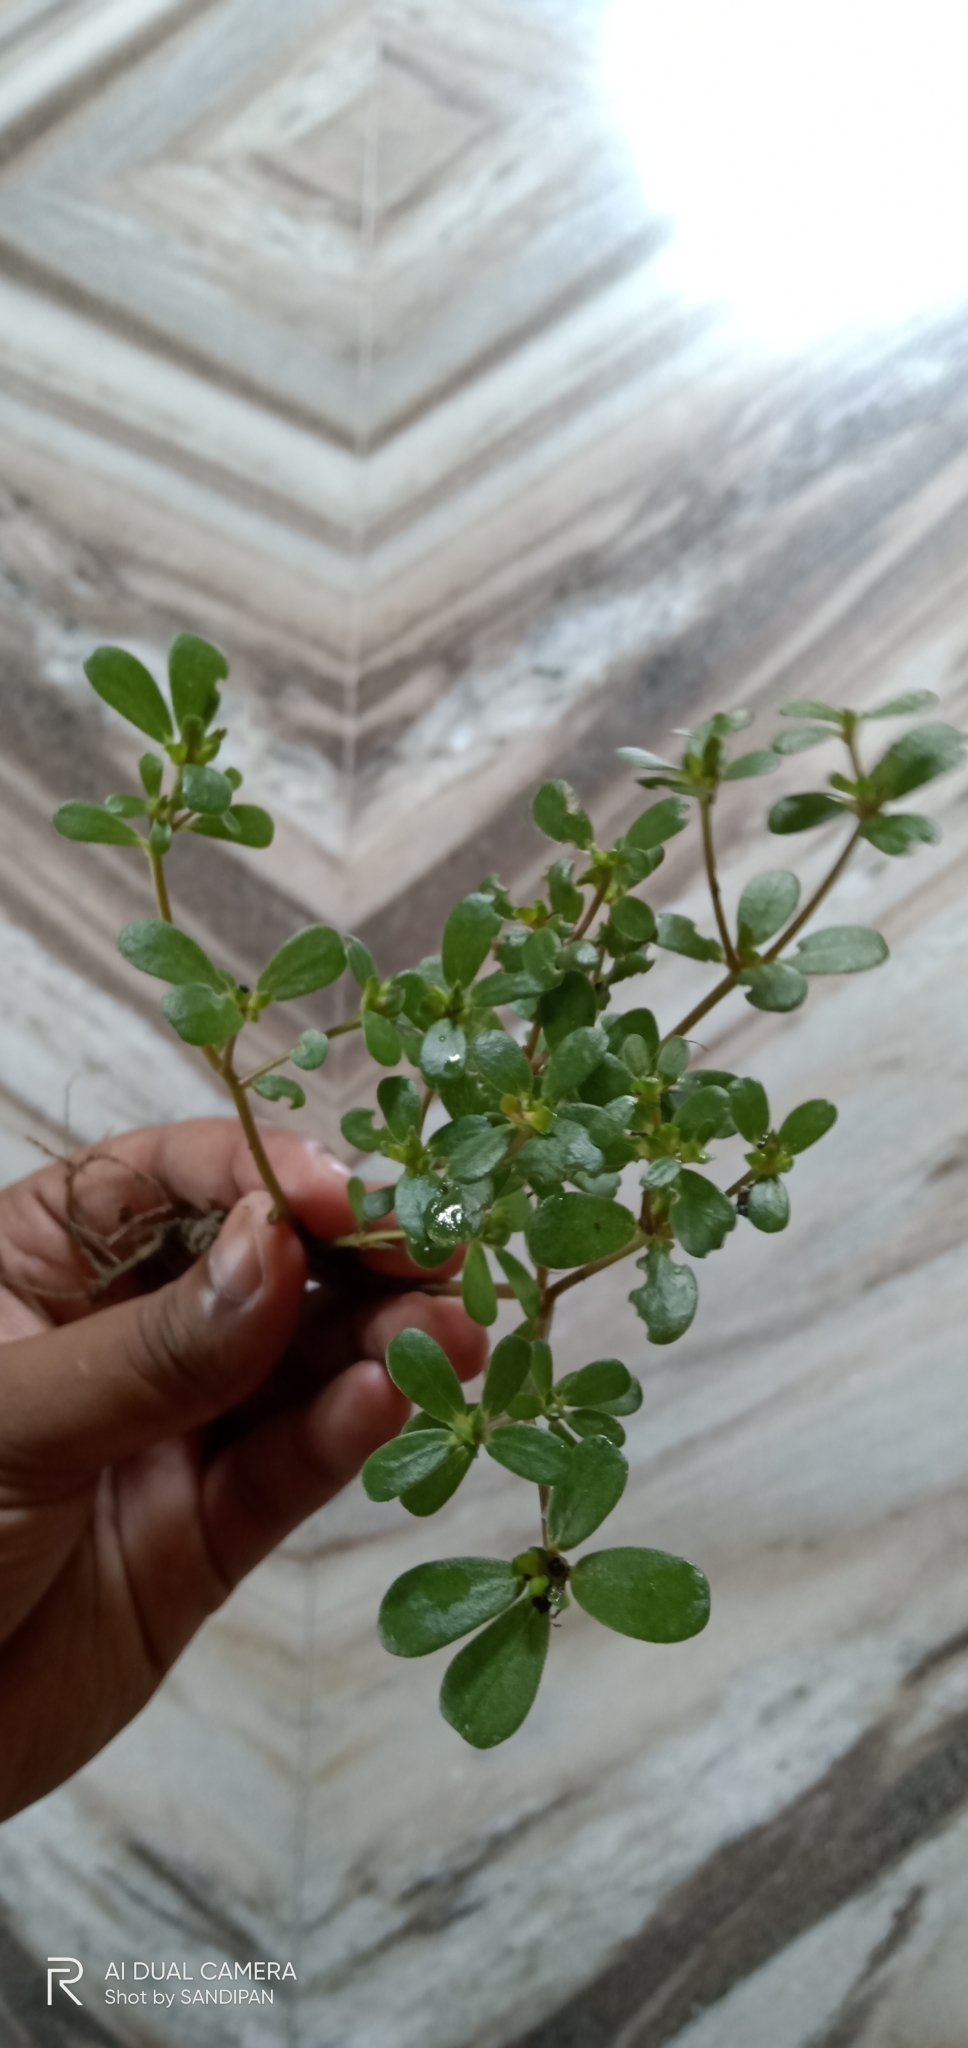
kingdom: Plantae
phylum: Tracheophyta
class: Magnoliopsida
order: Caryophyllales
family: Portulacaceae
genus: Portulaca
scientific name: Portulaca oleracea
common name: Common purslane
